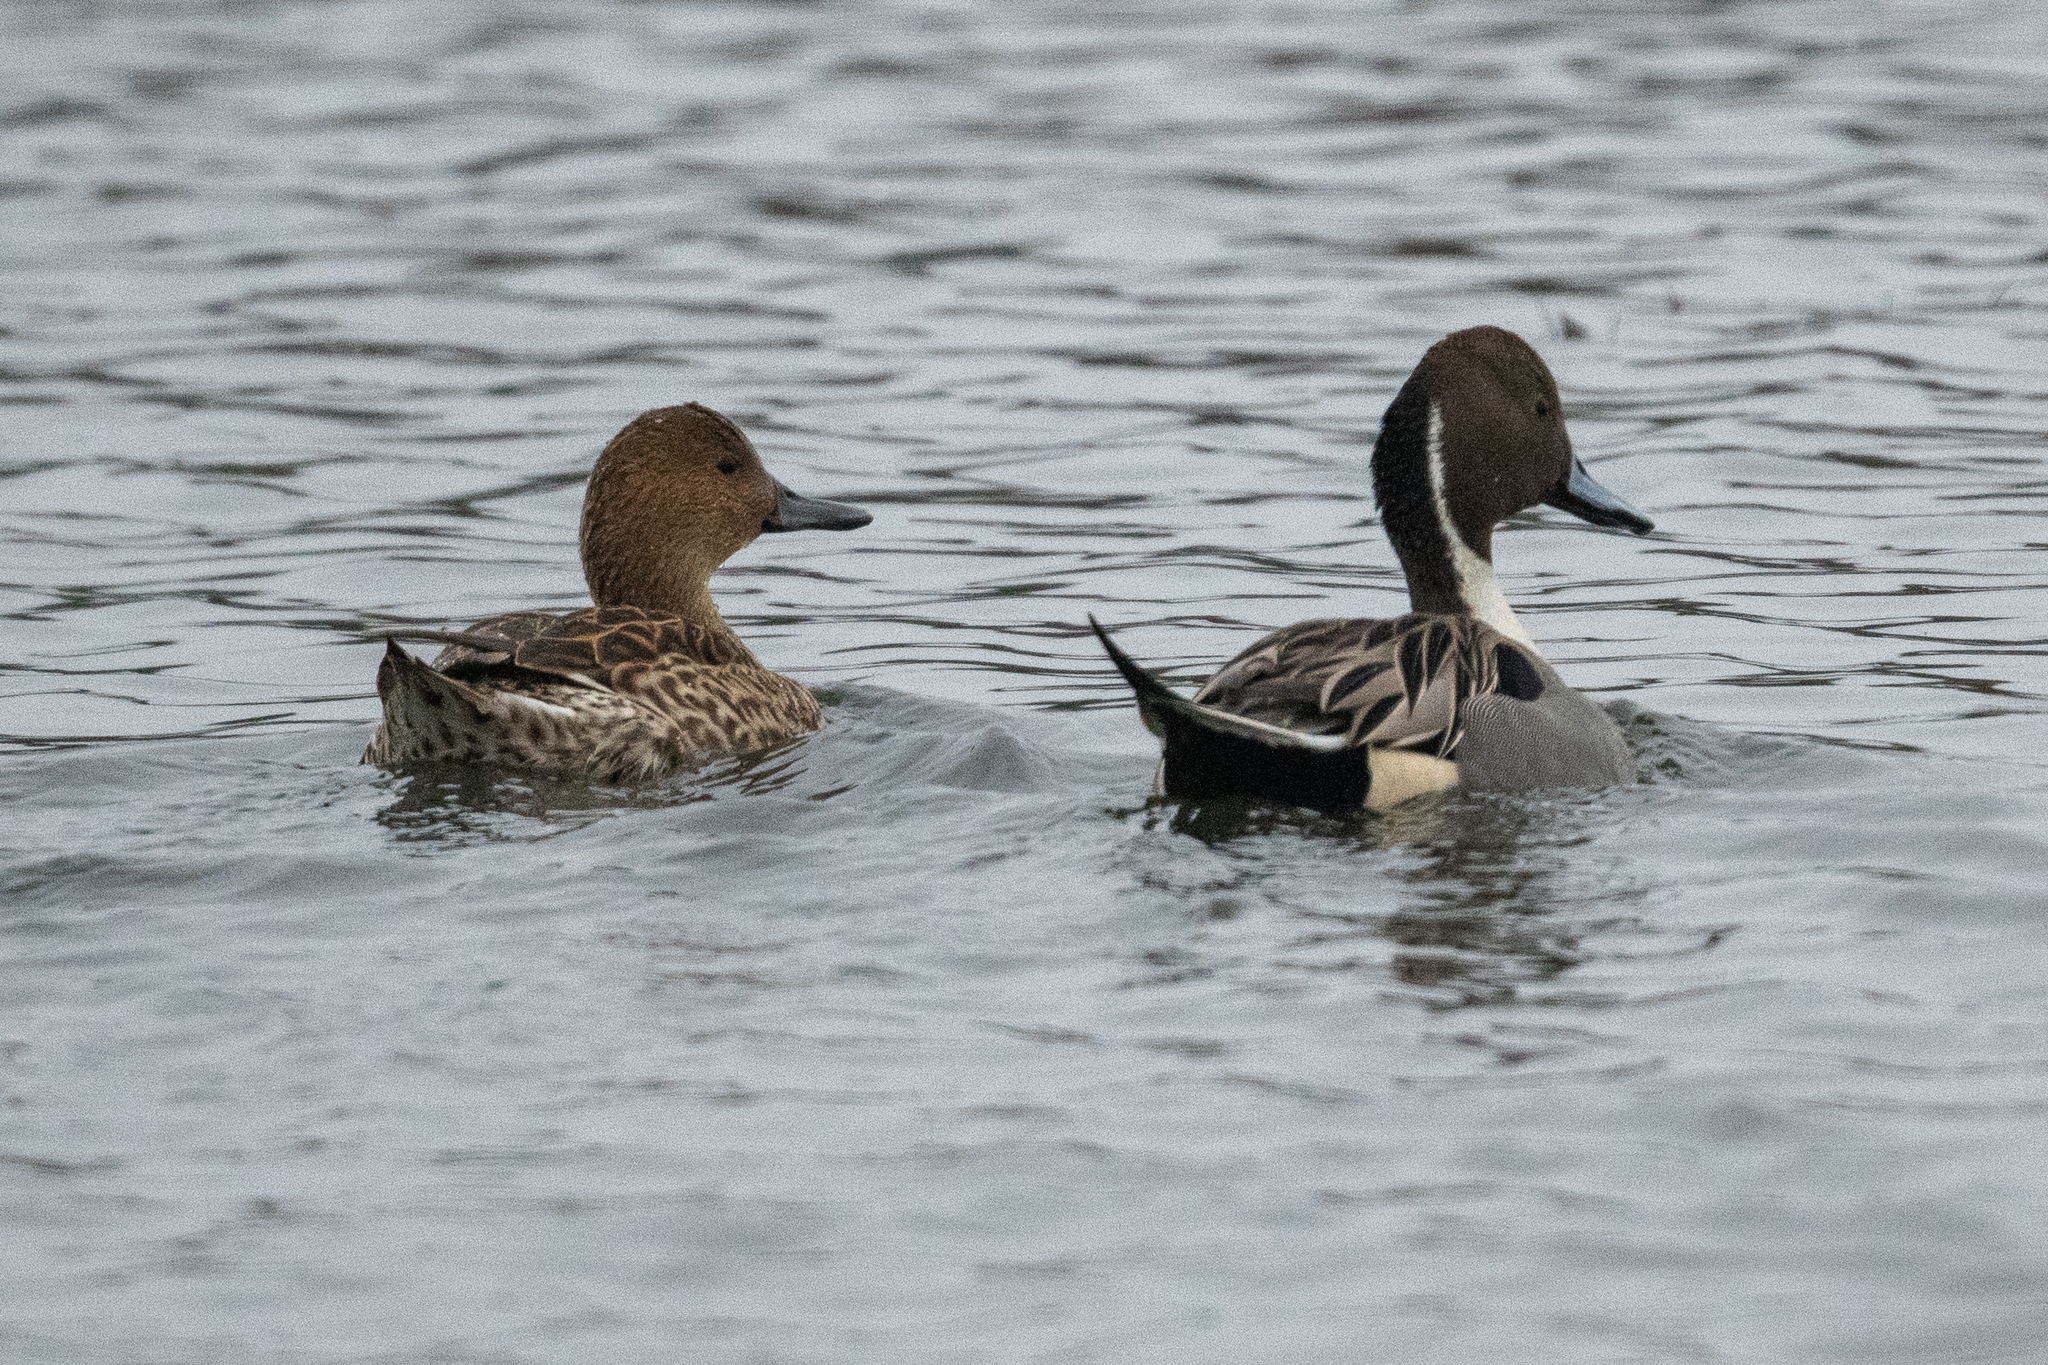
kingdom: Animalia
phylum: Chordata
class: Aves
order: Anseriformes
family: Anatidae
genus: Anas
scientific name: Anas acuta
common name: Northern pintail
